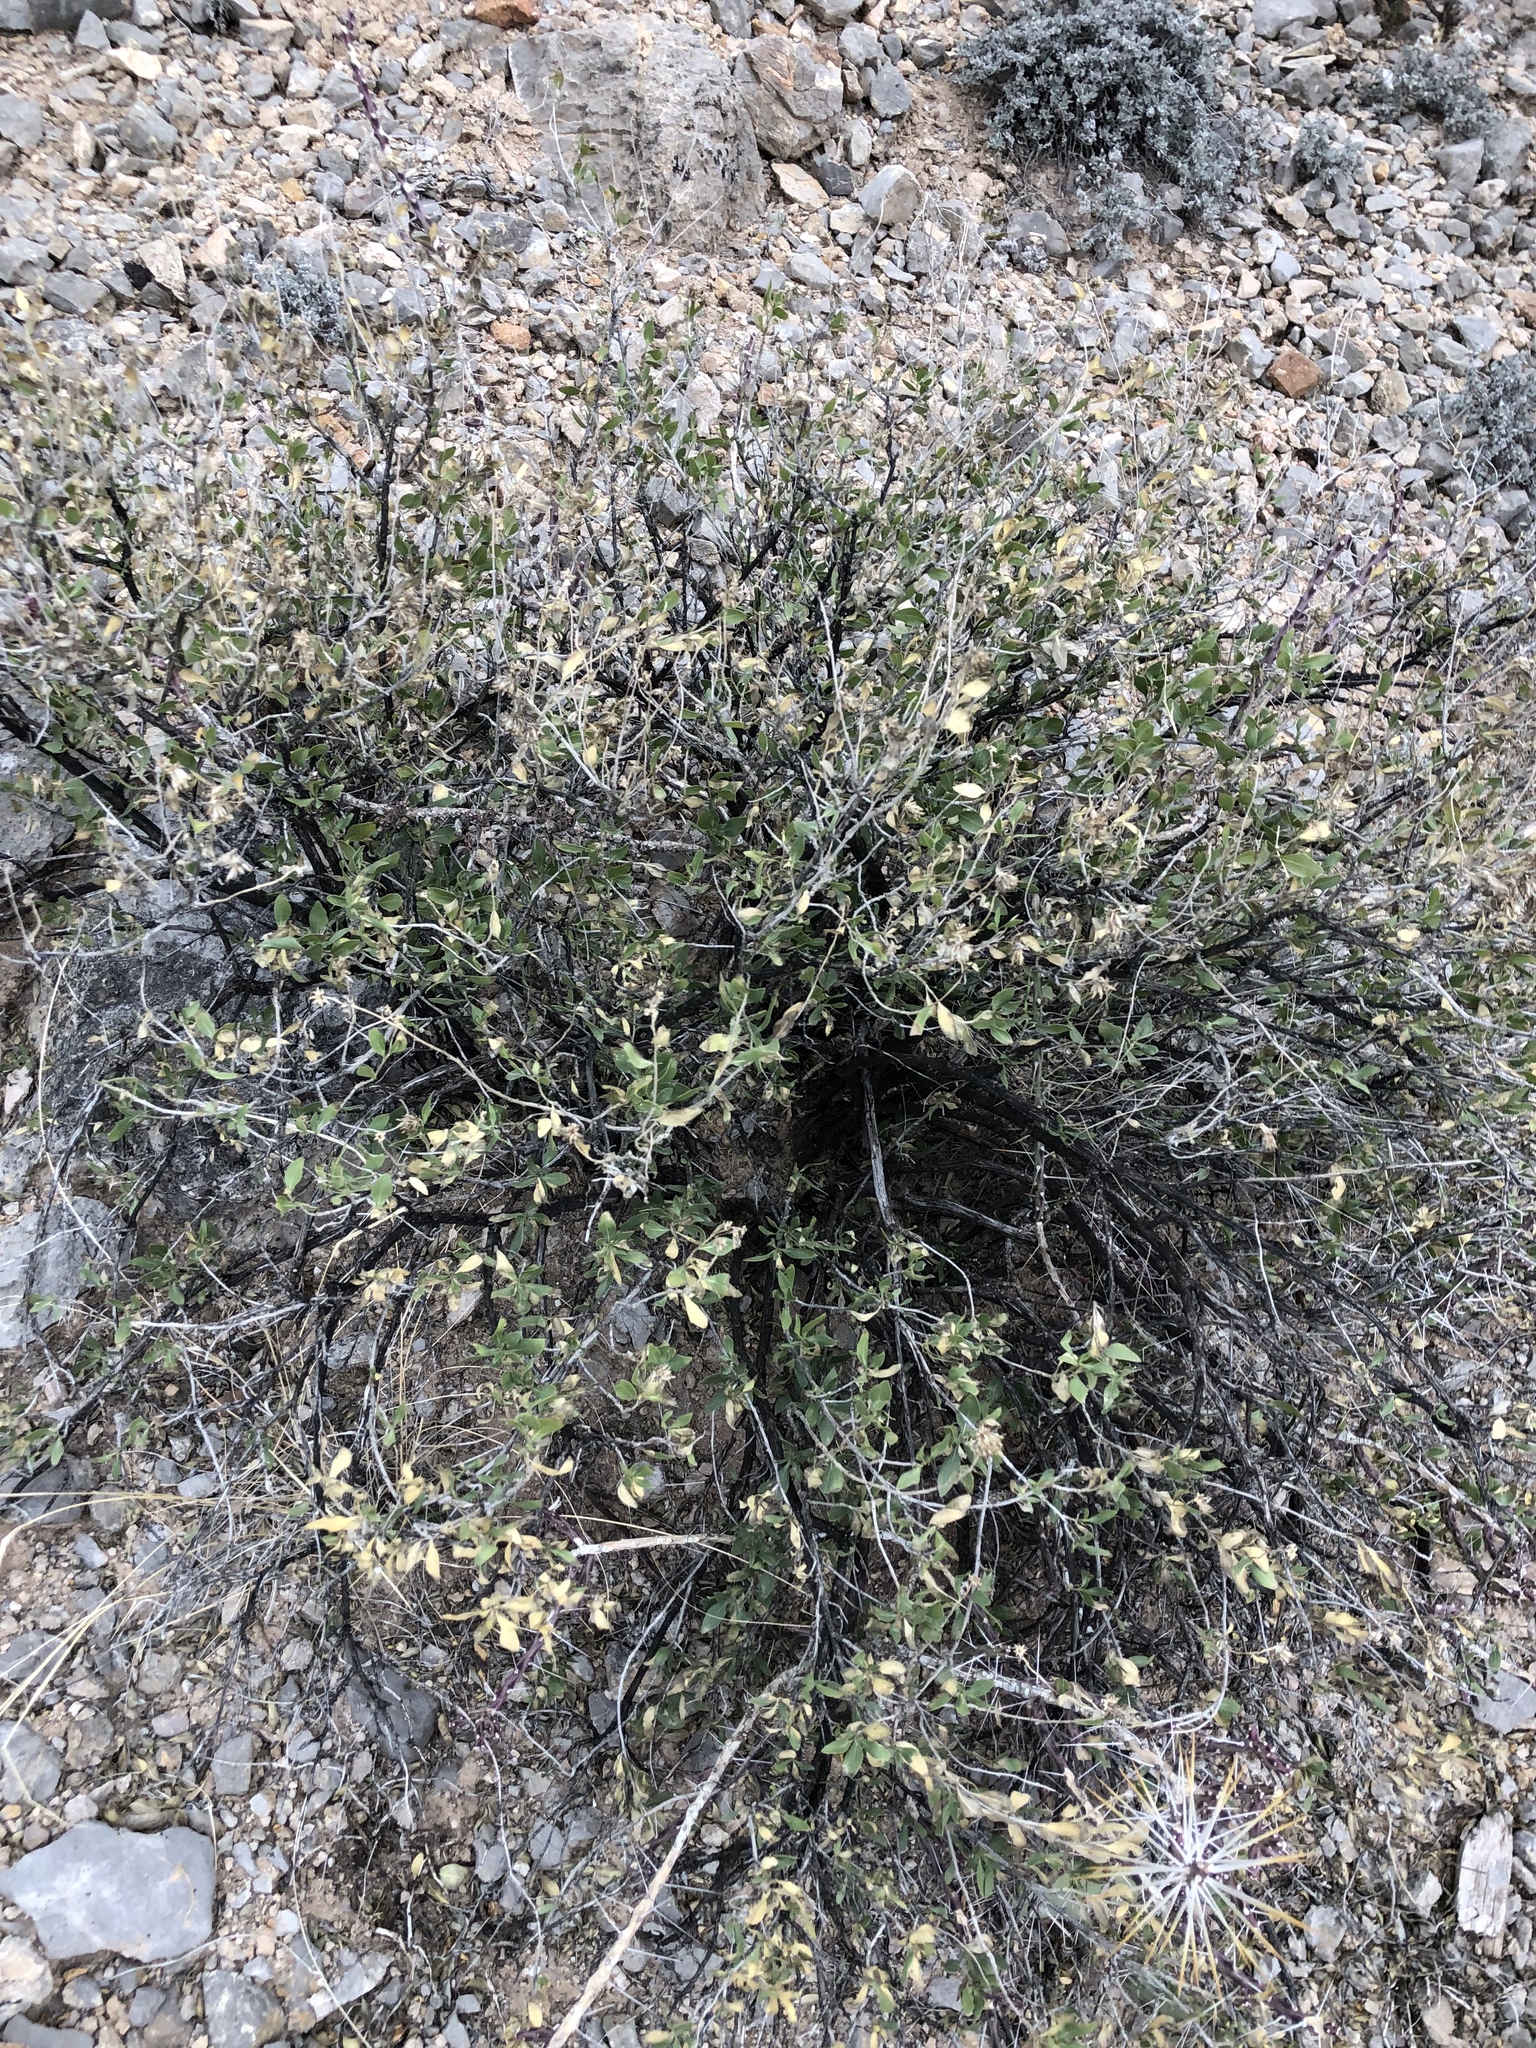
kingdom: Plantae
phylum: Tracheophyta
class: Magnoliopsida
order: Asterales
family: Asteraceae
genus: Flourensia
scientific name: Flourensia cernua
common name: Varnishbush
